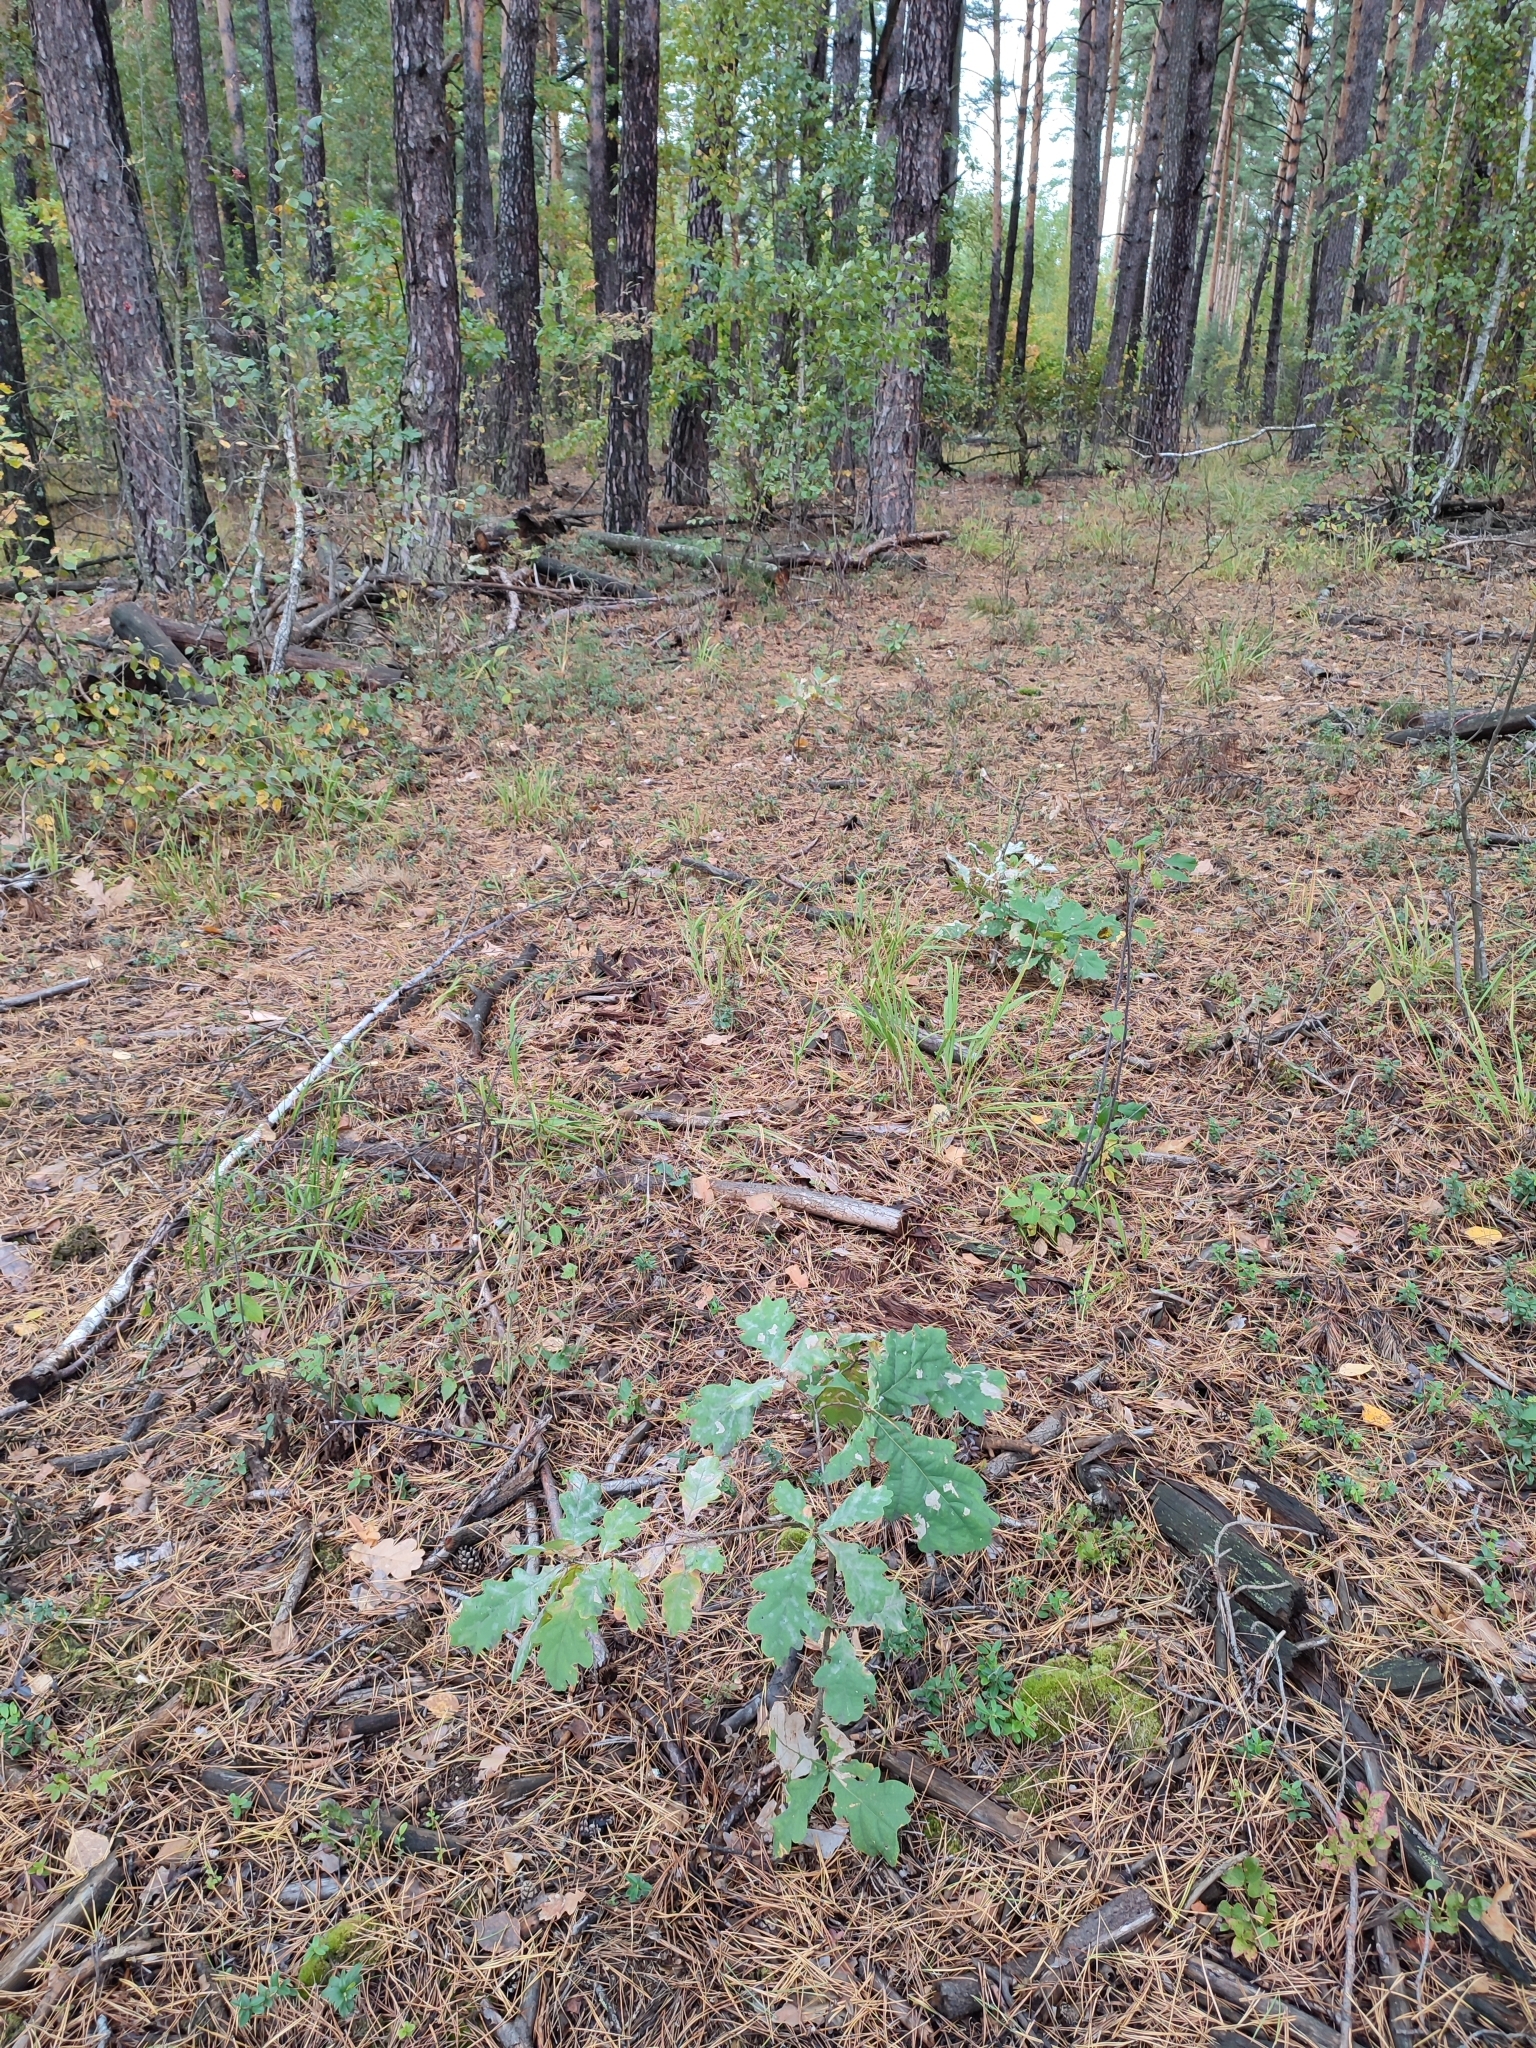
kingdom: Plantae
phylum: Tracheophyta
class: Magnoliopsida
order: Fagales
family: Fagaceae
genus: Quercus
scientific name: Quercus robur
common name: Pedunculate oak
